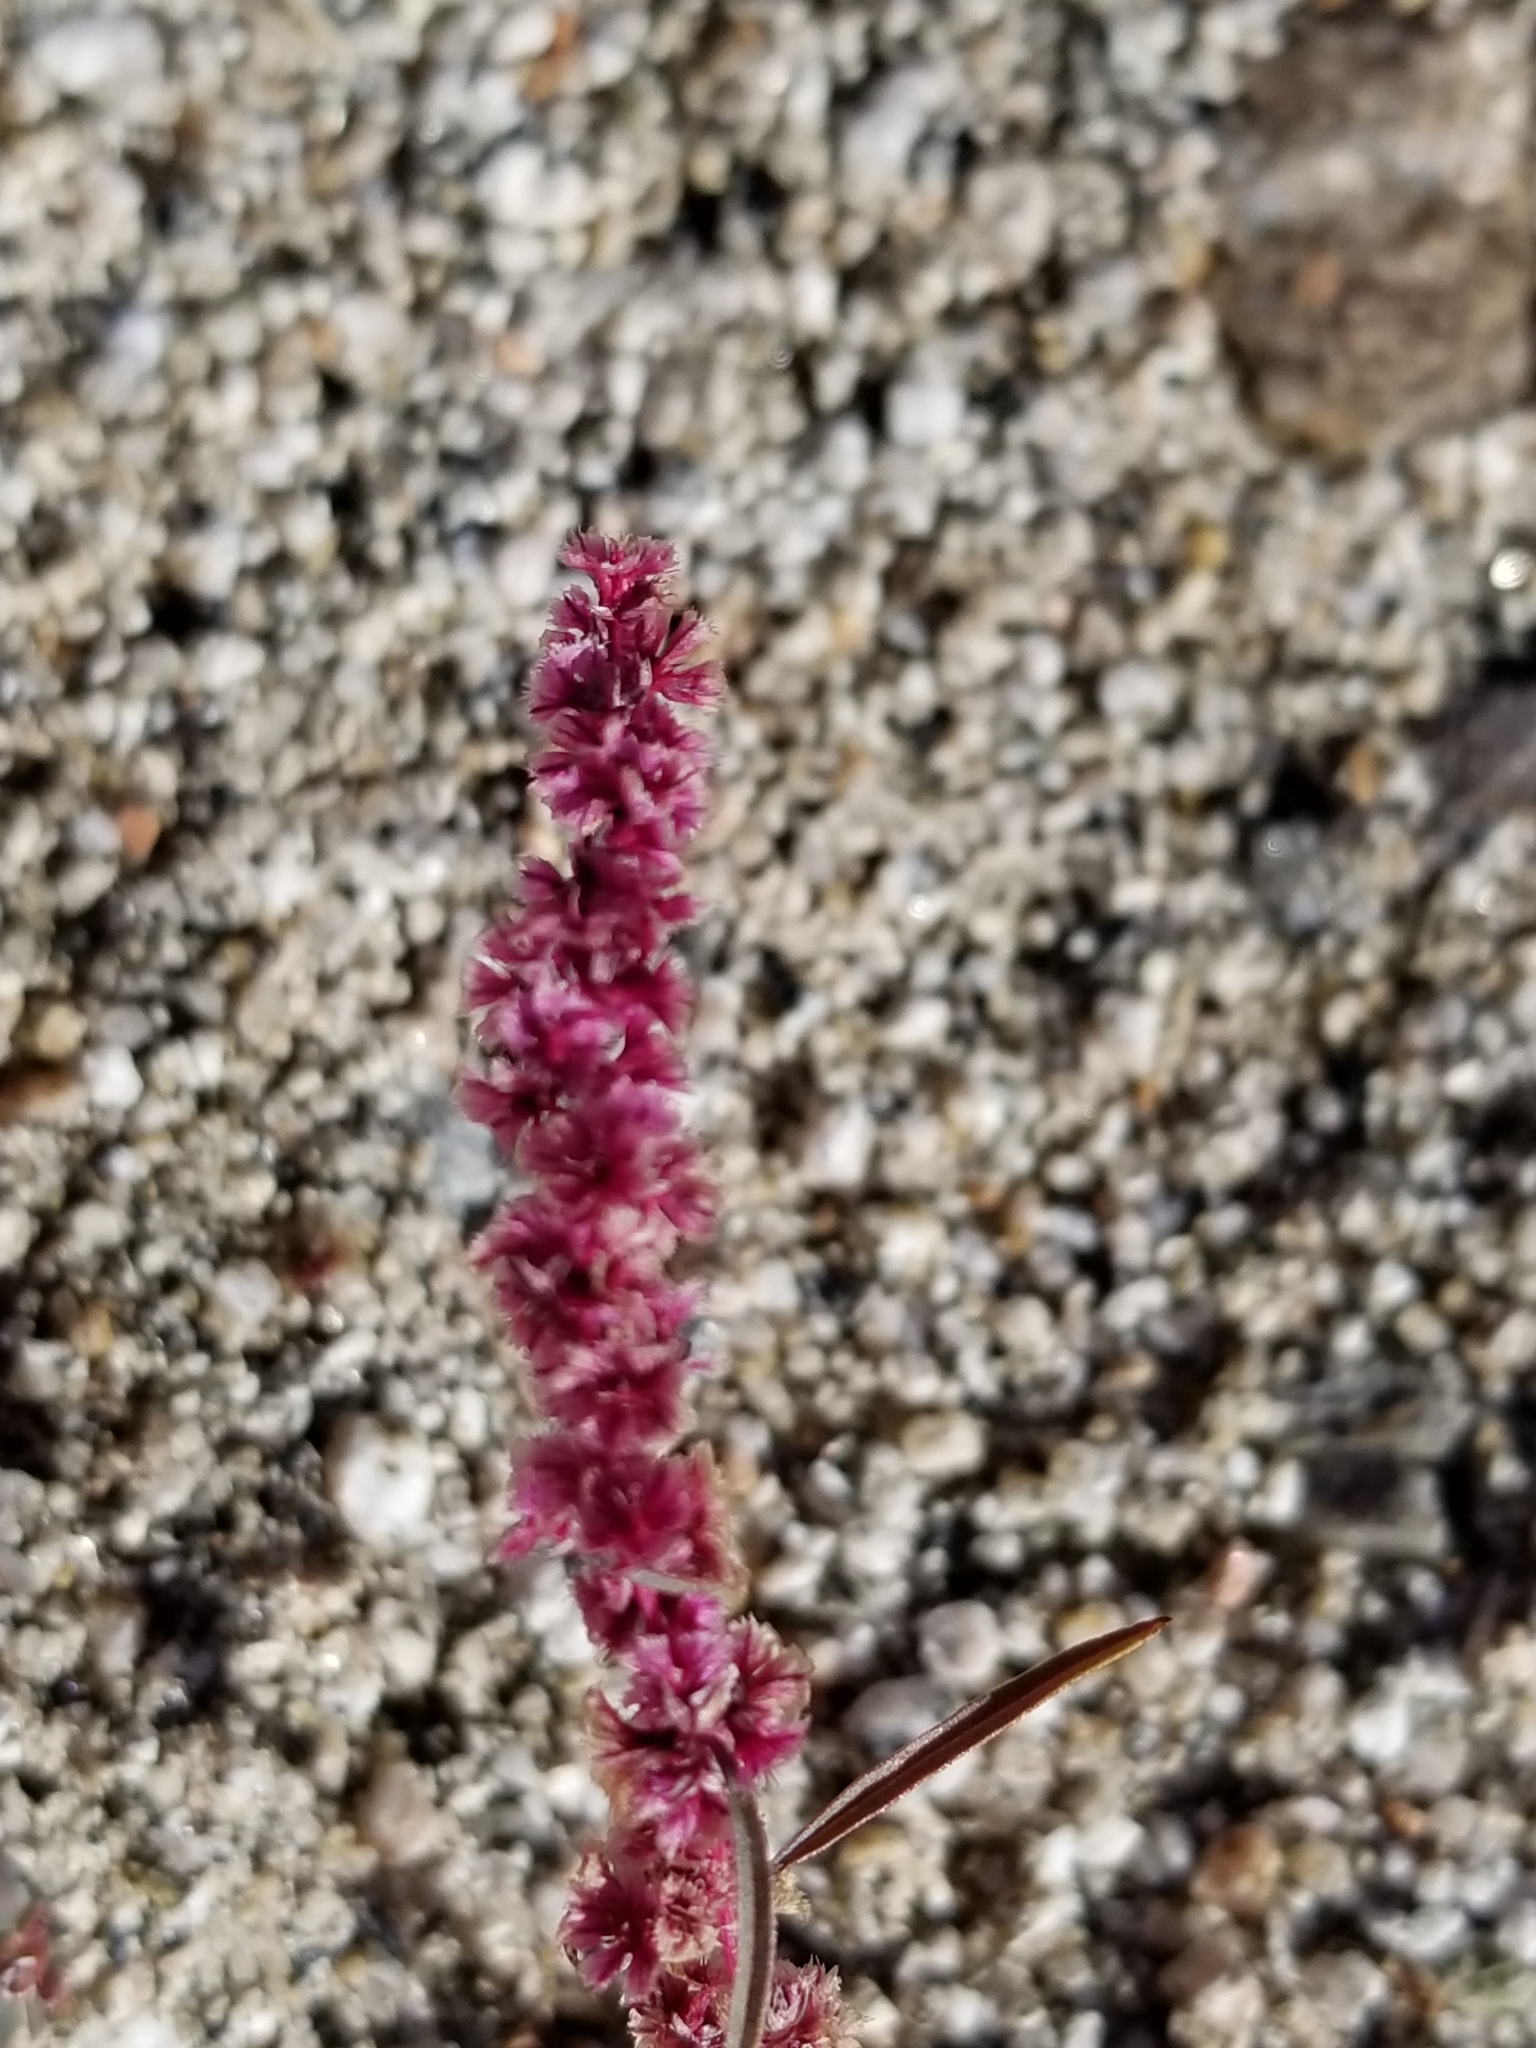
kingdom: Plantae
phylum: Tracheophyta
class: Magnoliopsida
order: Caryophyllales
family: Amaranthaceae
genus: Amaranthus
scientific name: Amaranthus fimbriatus
